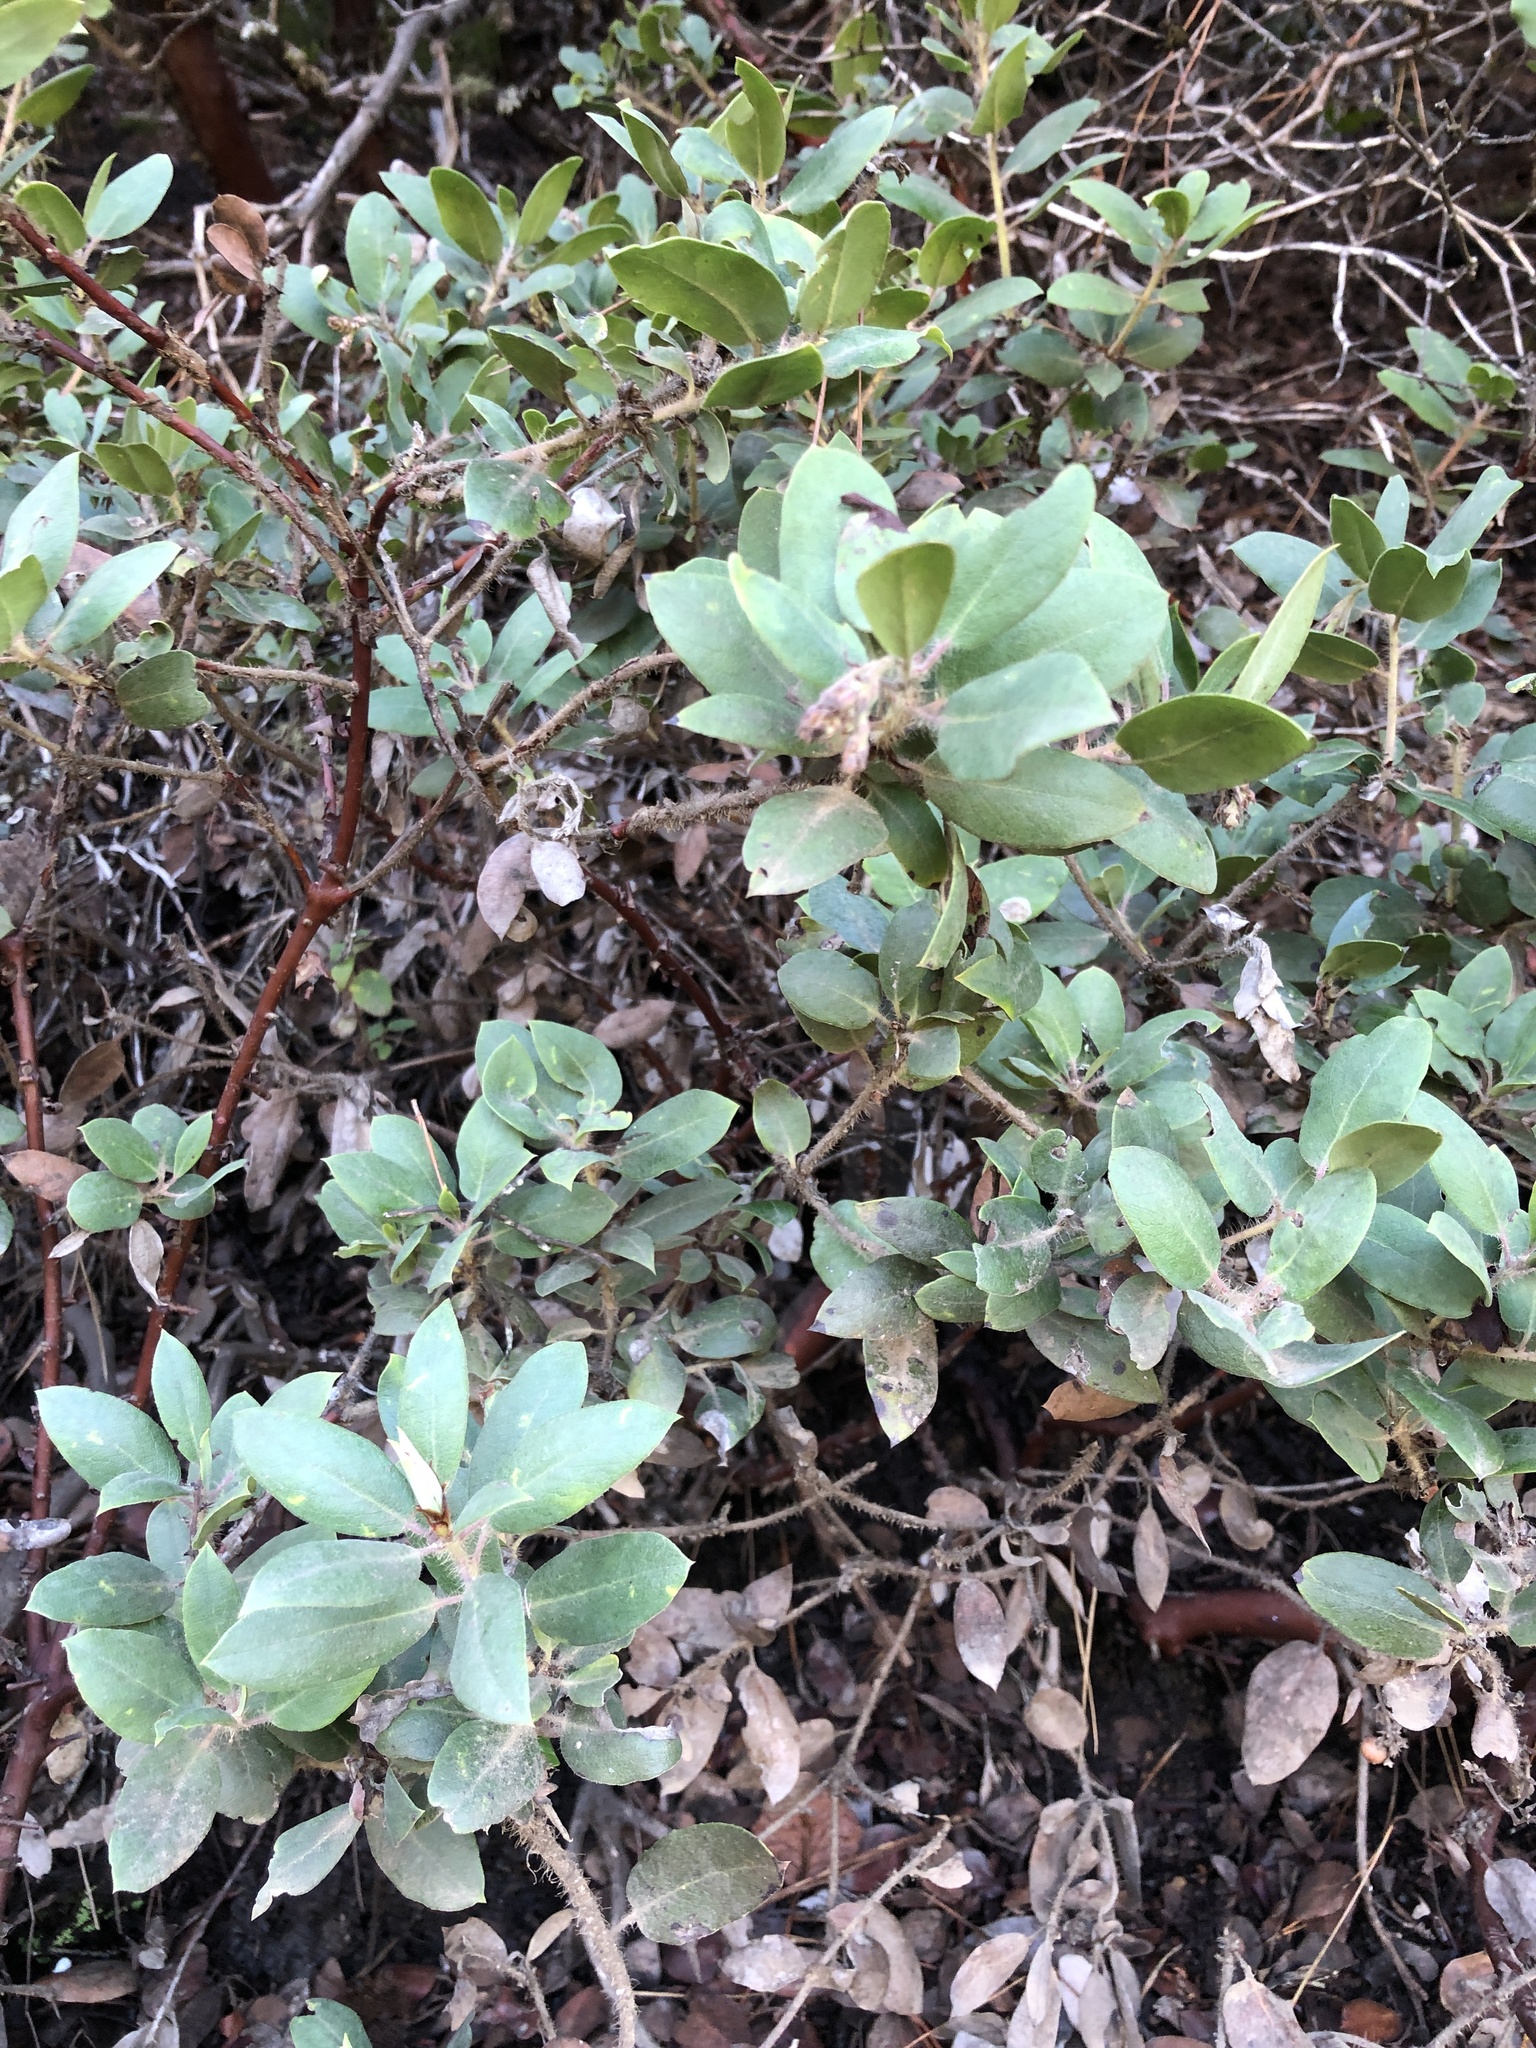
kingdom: Plantae
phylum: Tracheophyta
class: Magnoliopsida
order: Ericales
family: Ericaceae
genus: Arctostaphylos
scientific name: Arctostaphylos crustacea
